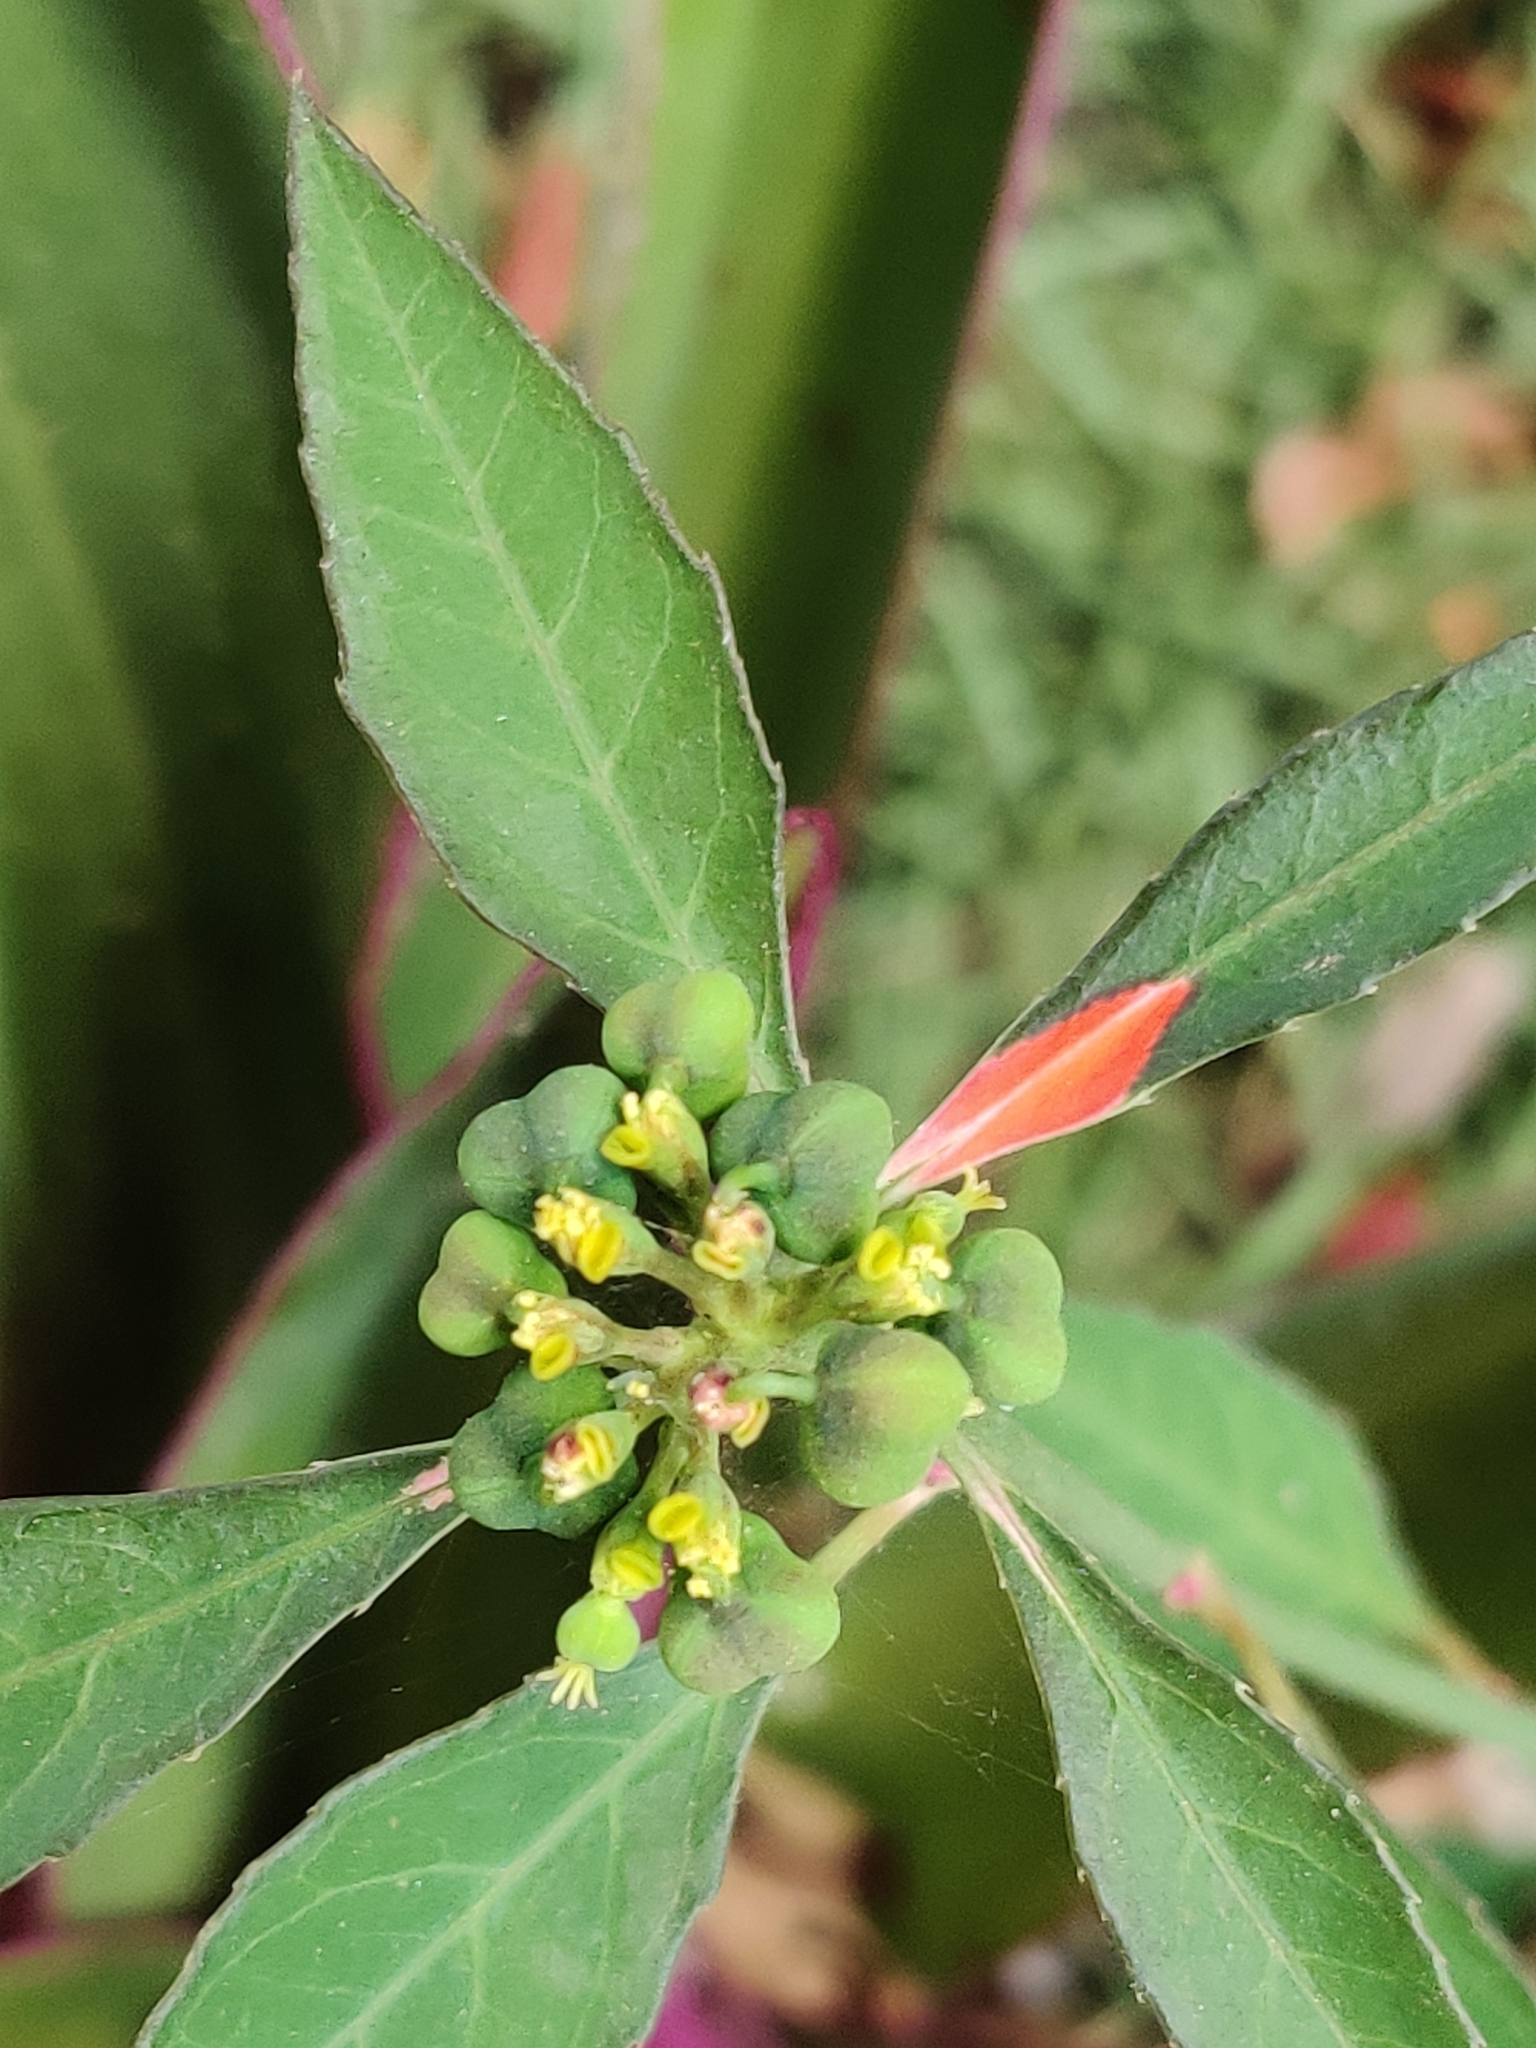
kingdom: Plantae
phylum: Tracheophyta
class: Magnoliopsida
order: Malpighiales
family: Euphorbiaceae
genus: Euphorbia
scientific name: Euphorbia heterophylla
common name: Mexican fireplant
